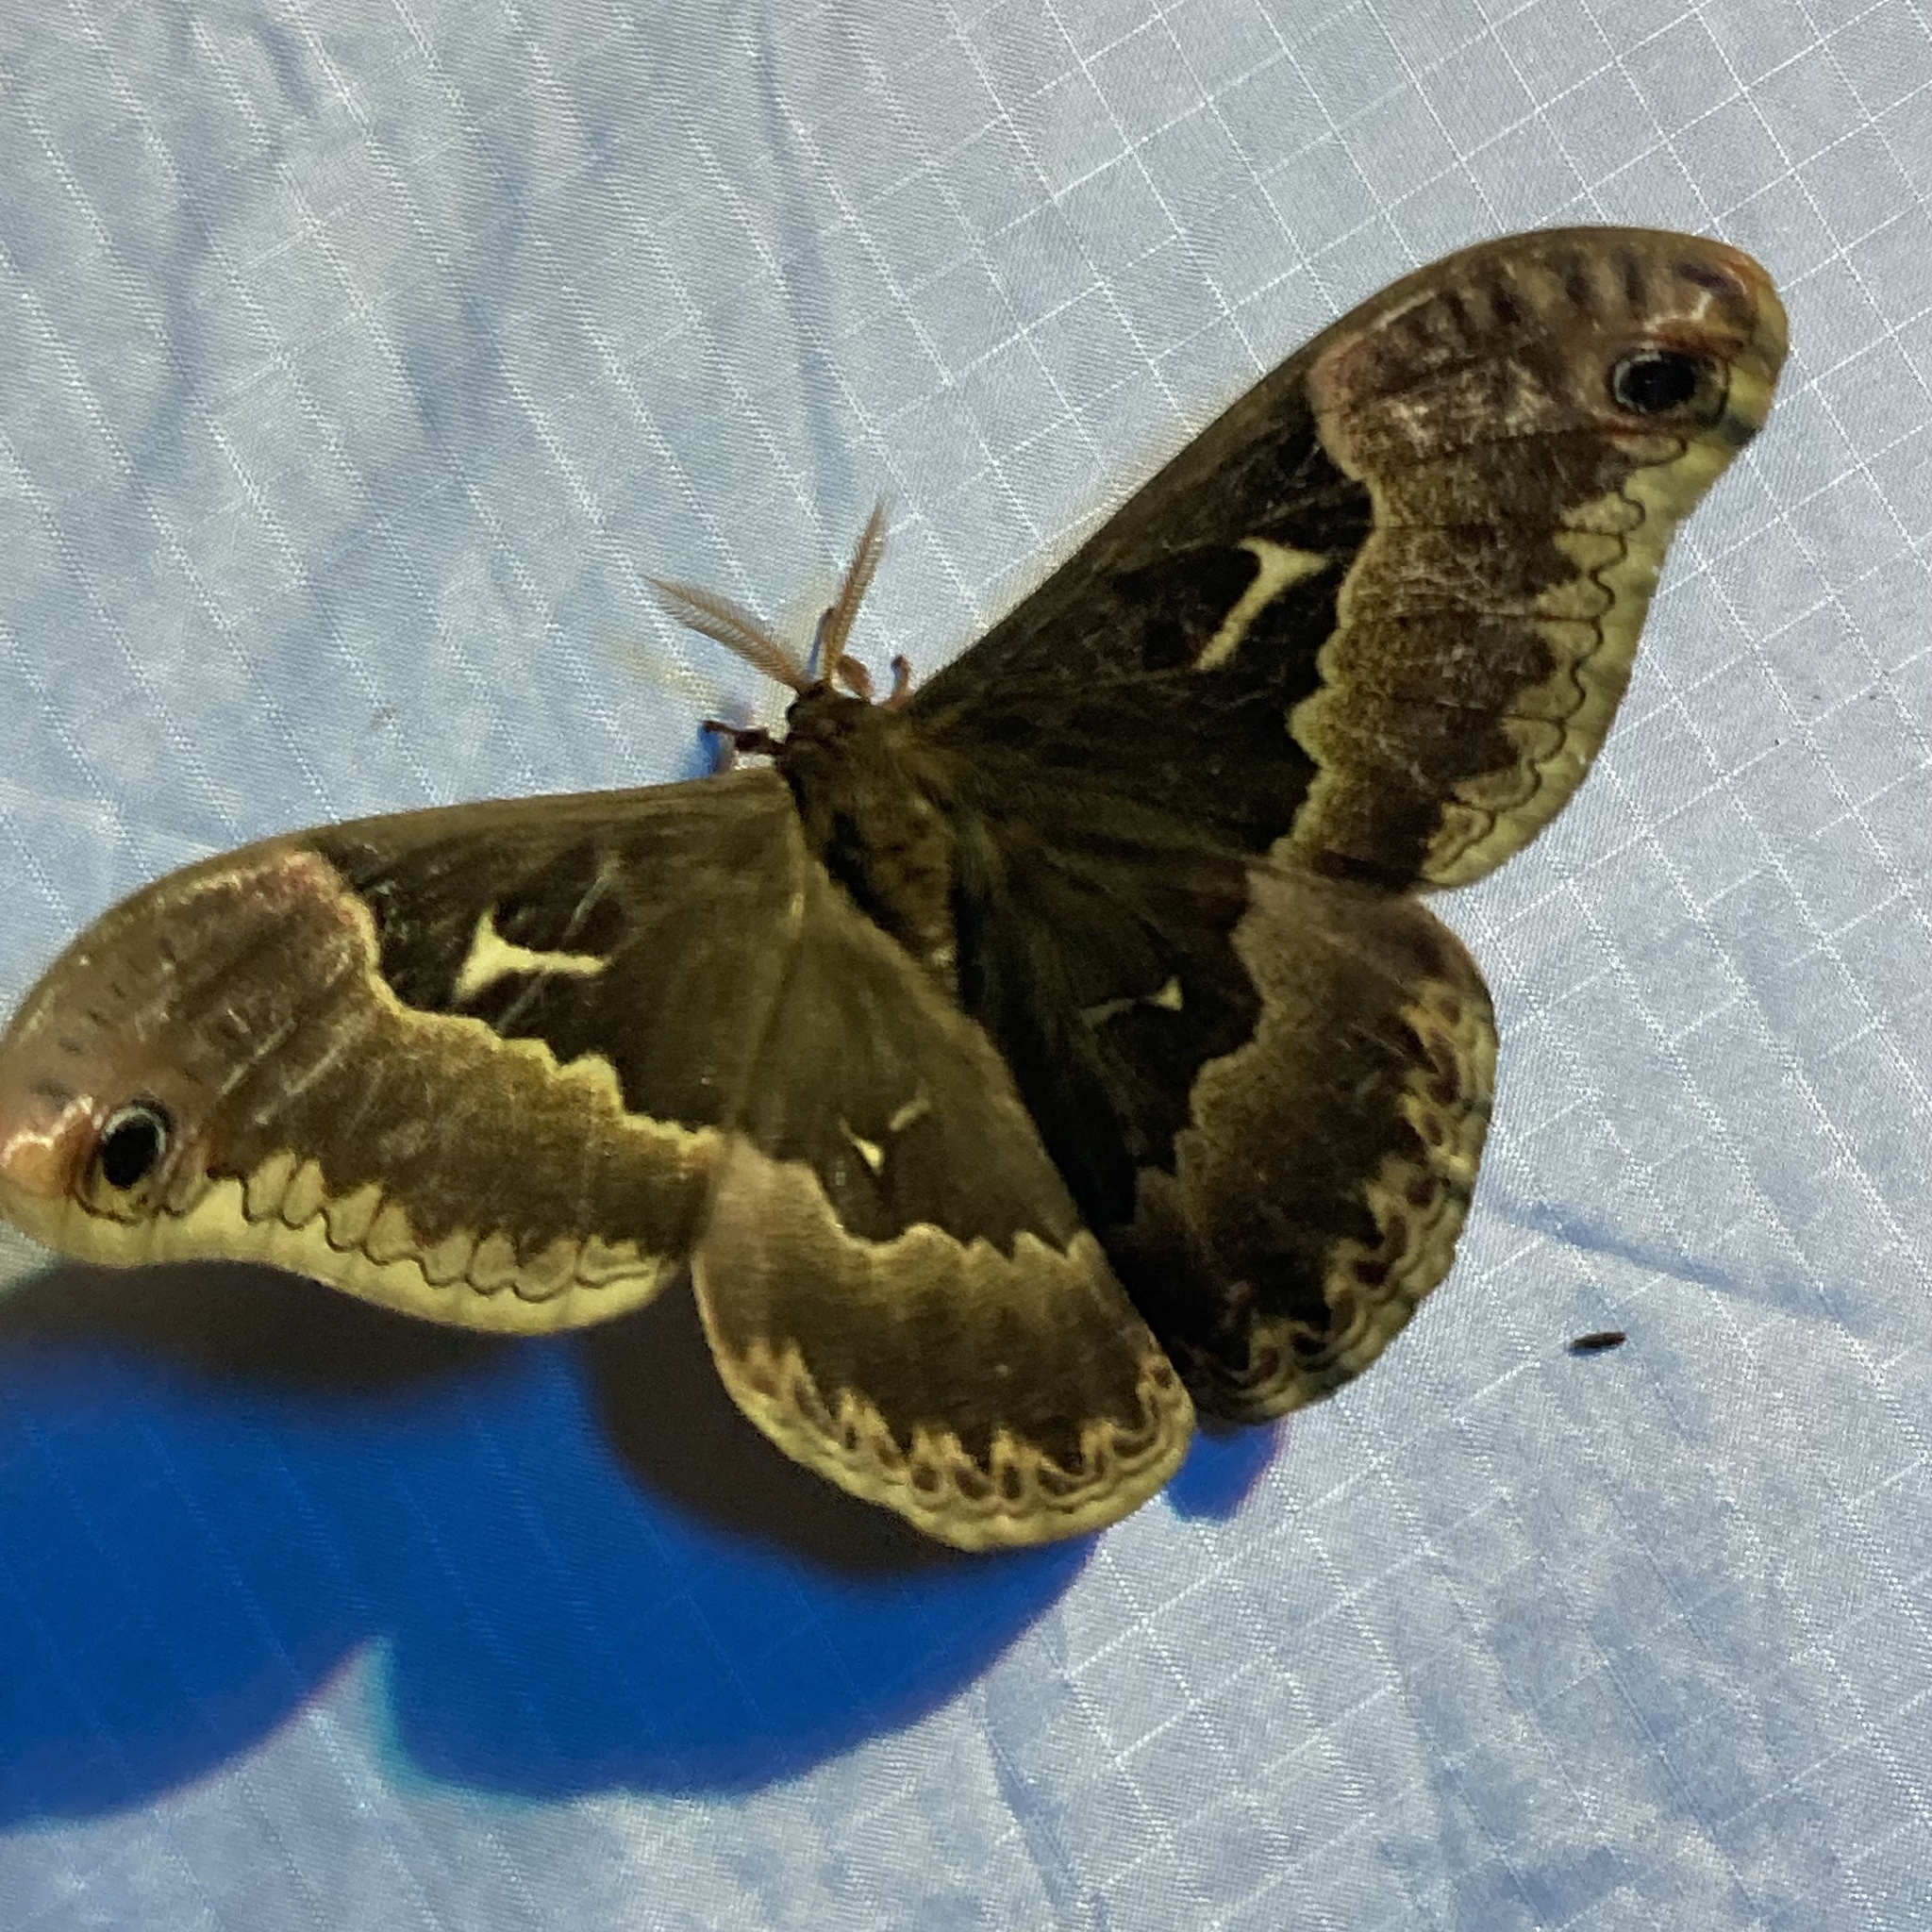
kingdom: Animalia
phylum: Arthropoda
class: Insecta
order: Lepidoptera
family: Saturniidae
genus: Callosamia
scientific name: Callosamia angulifera
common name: Tulip tree silkmoth
